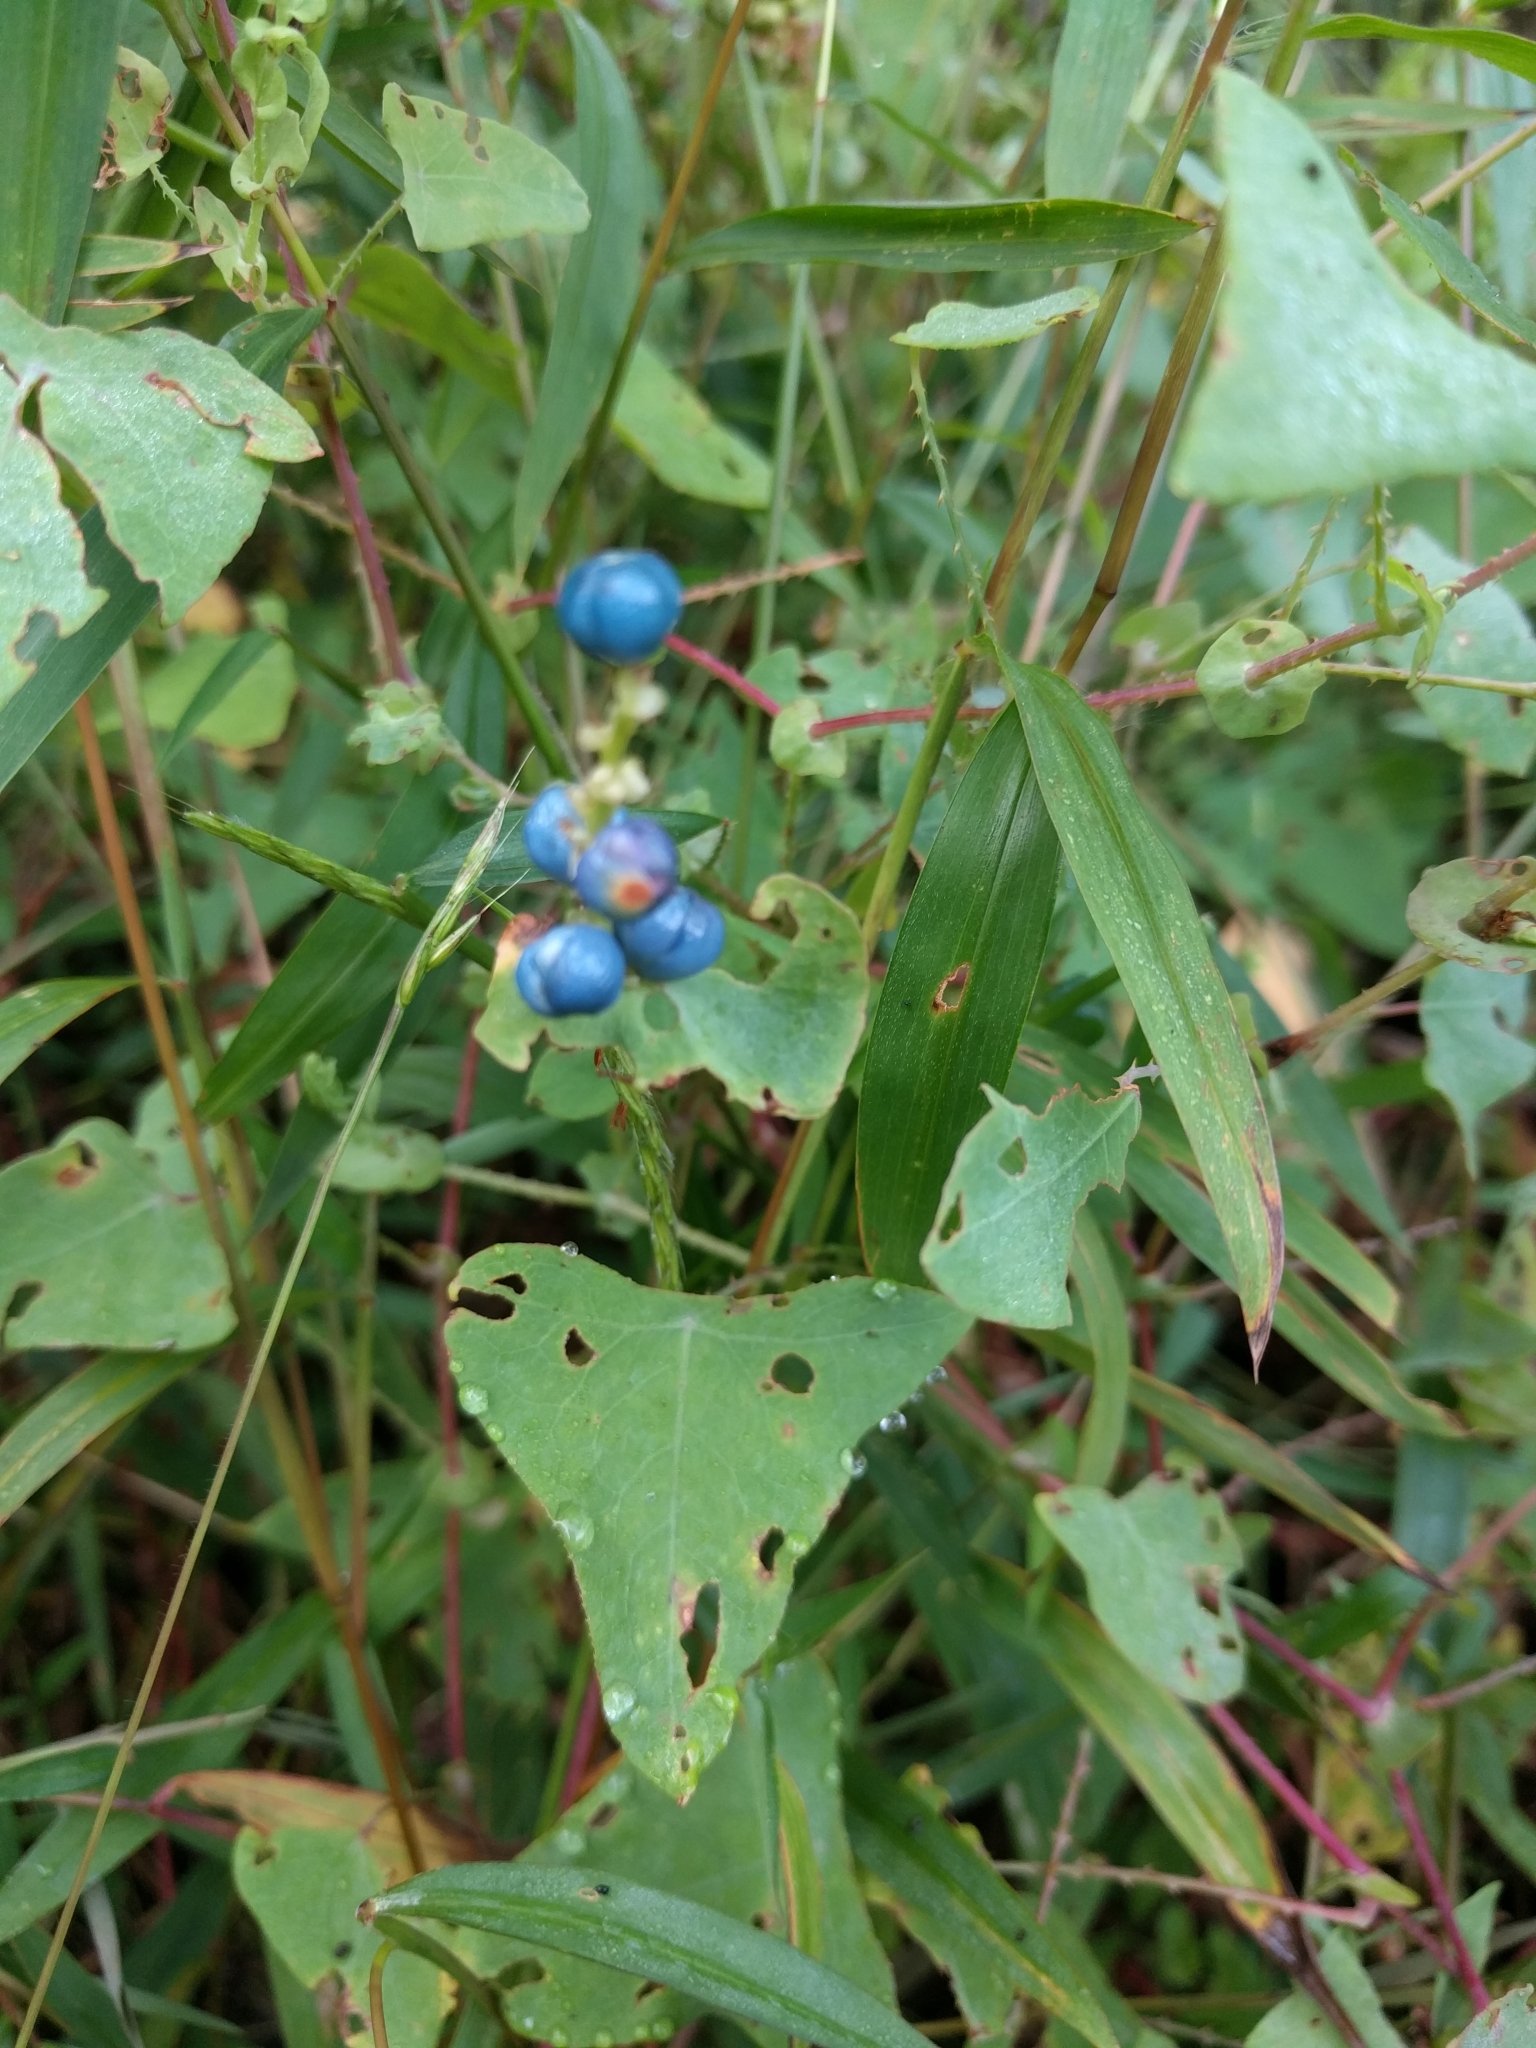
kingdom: Plantae
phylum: Tracheophyta
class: Magnoliopsida
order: Caryophyllales
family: Polygonaceae
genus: Persicaria
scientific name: Persicaria perfoliata
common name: Asiatic tearthumb
